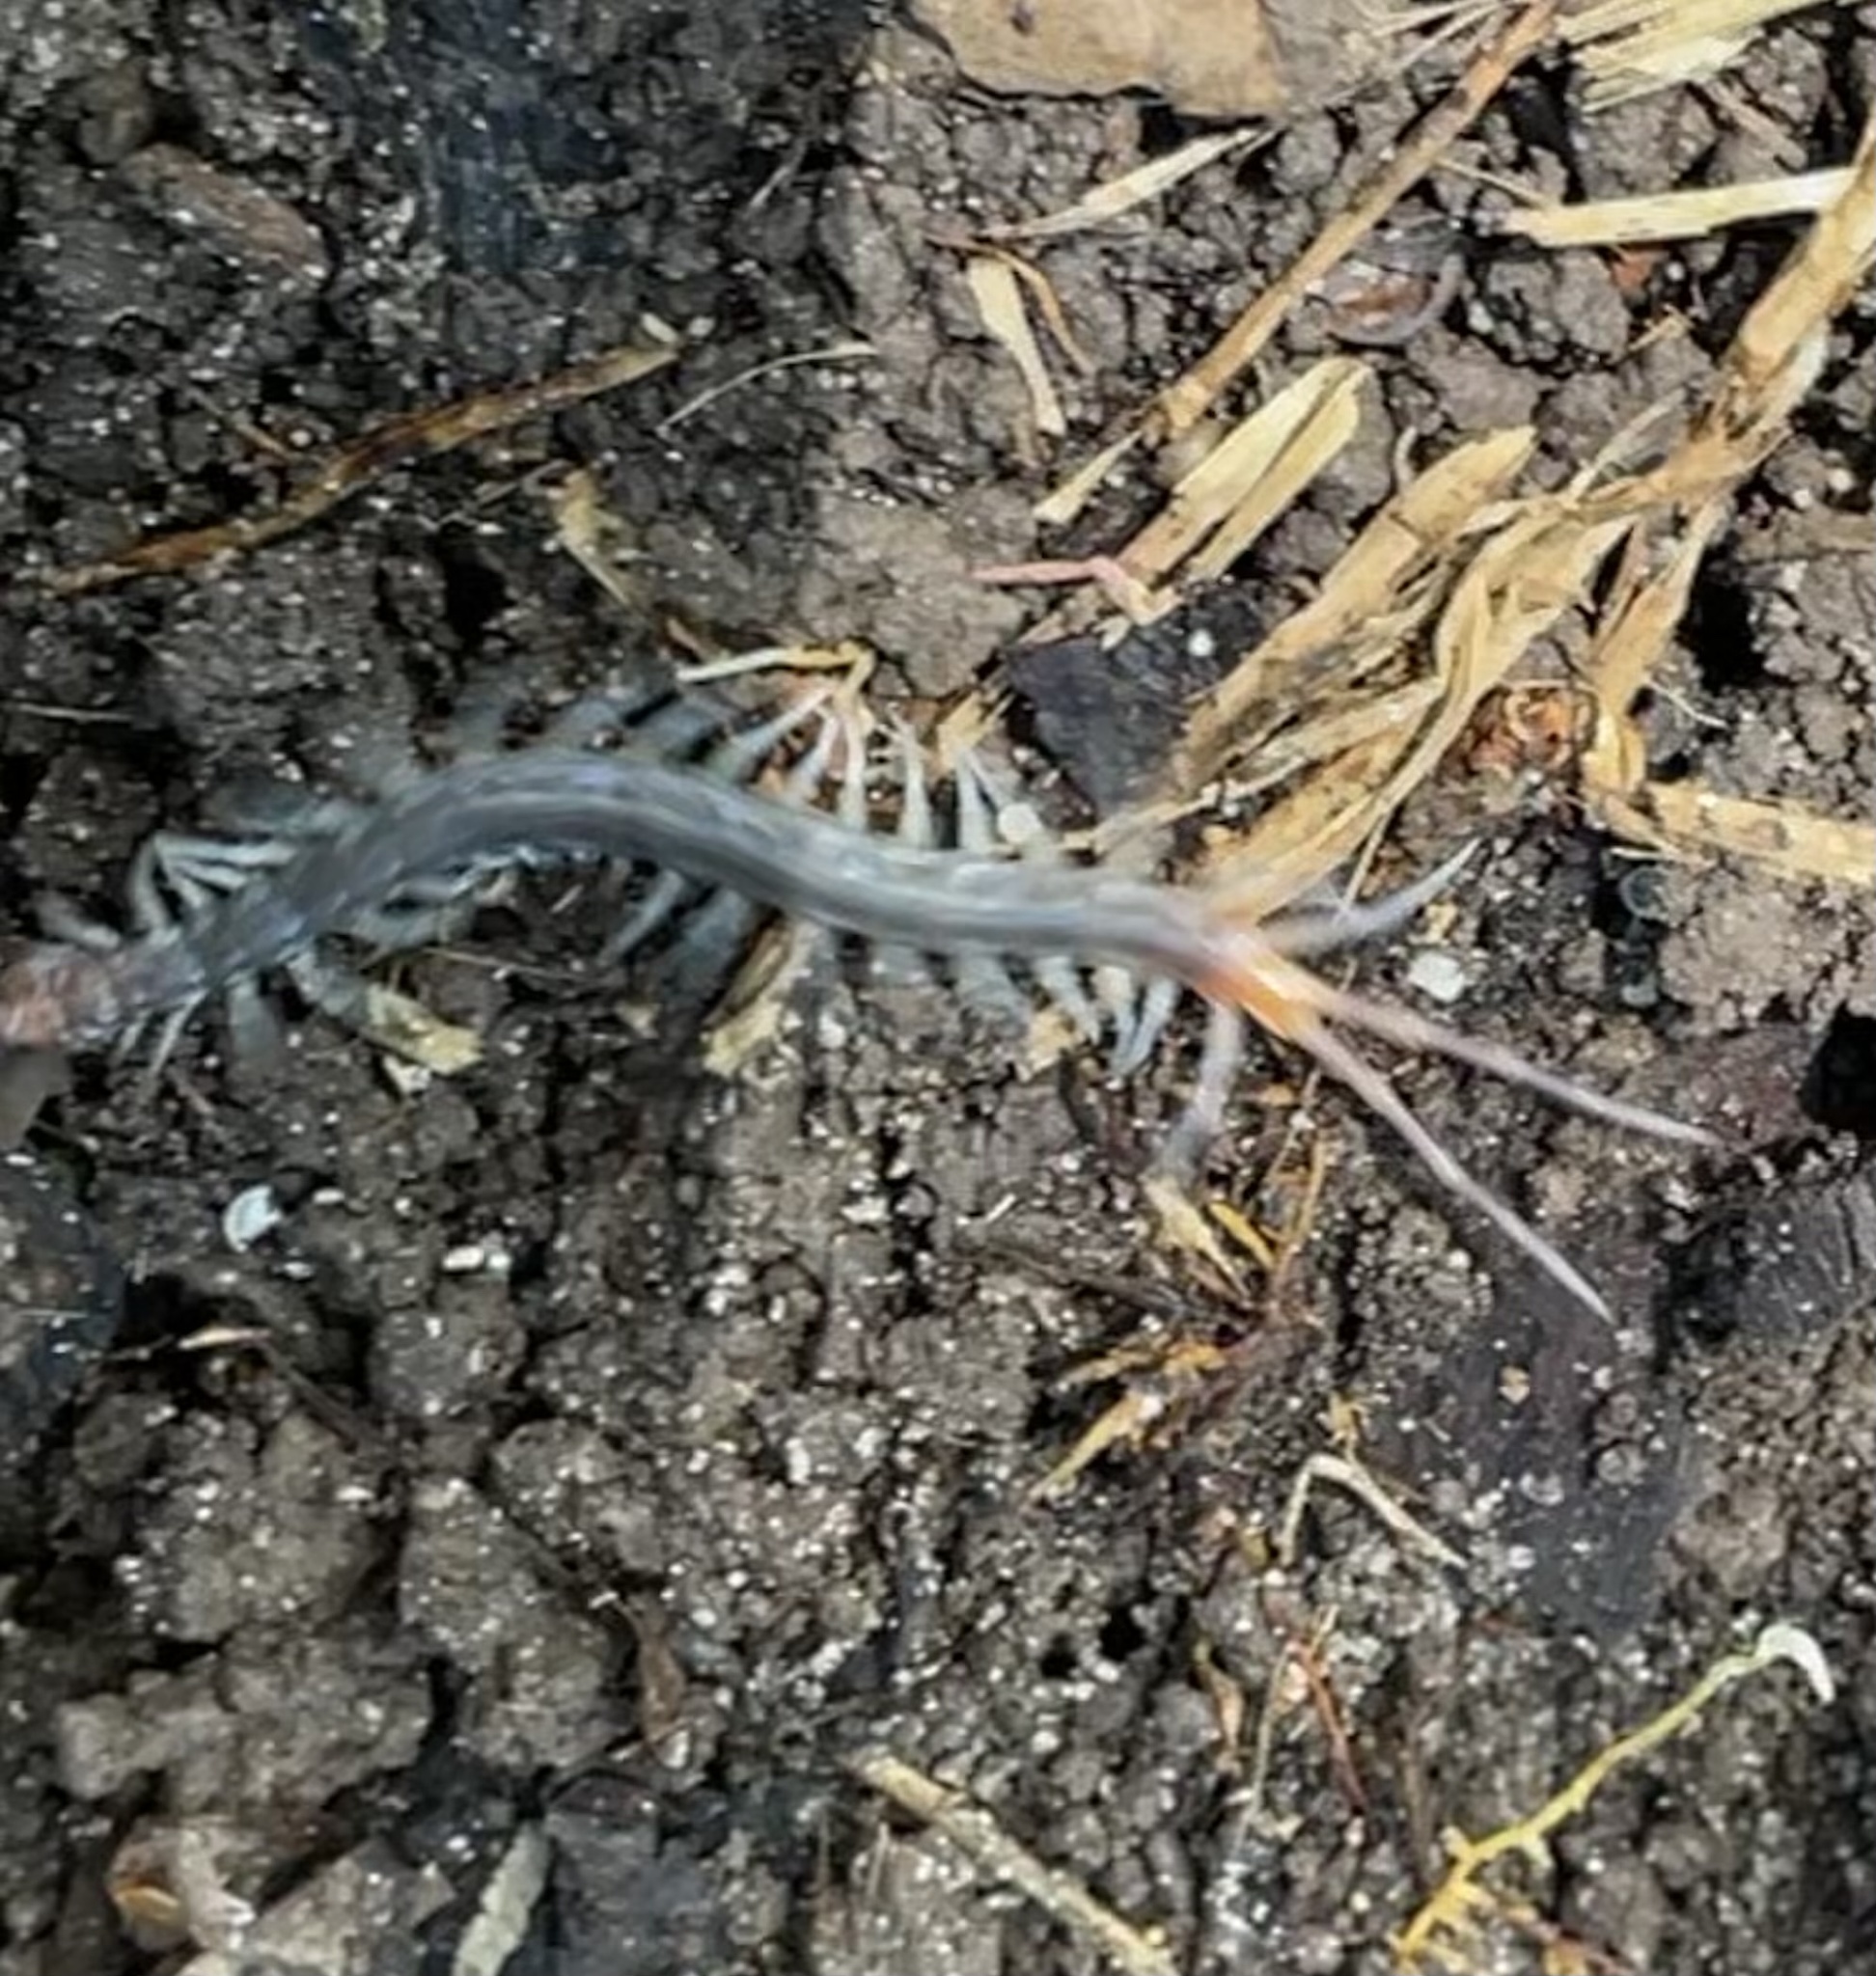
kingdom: Animalia
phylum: Arthropoda
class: Chilopoda
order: Scolopendromorpha
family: Scolopendridae
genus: Rhysida
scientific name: Rhysida longipes
